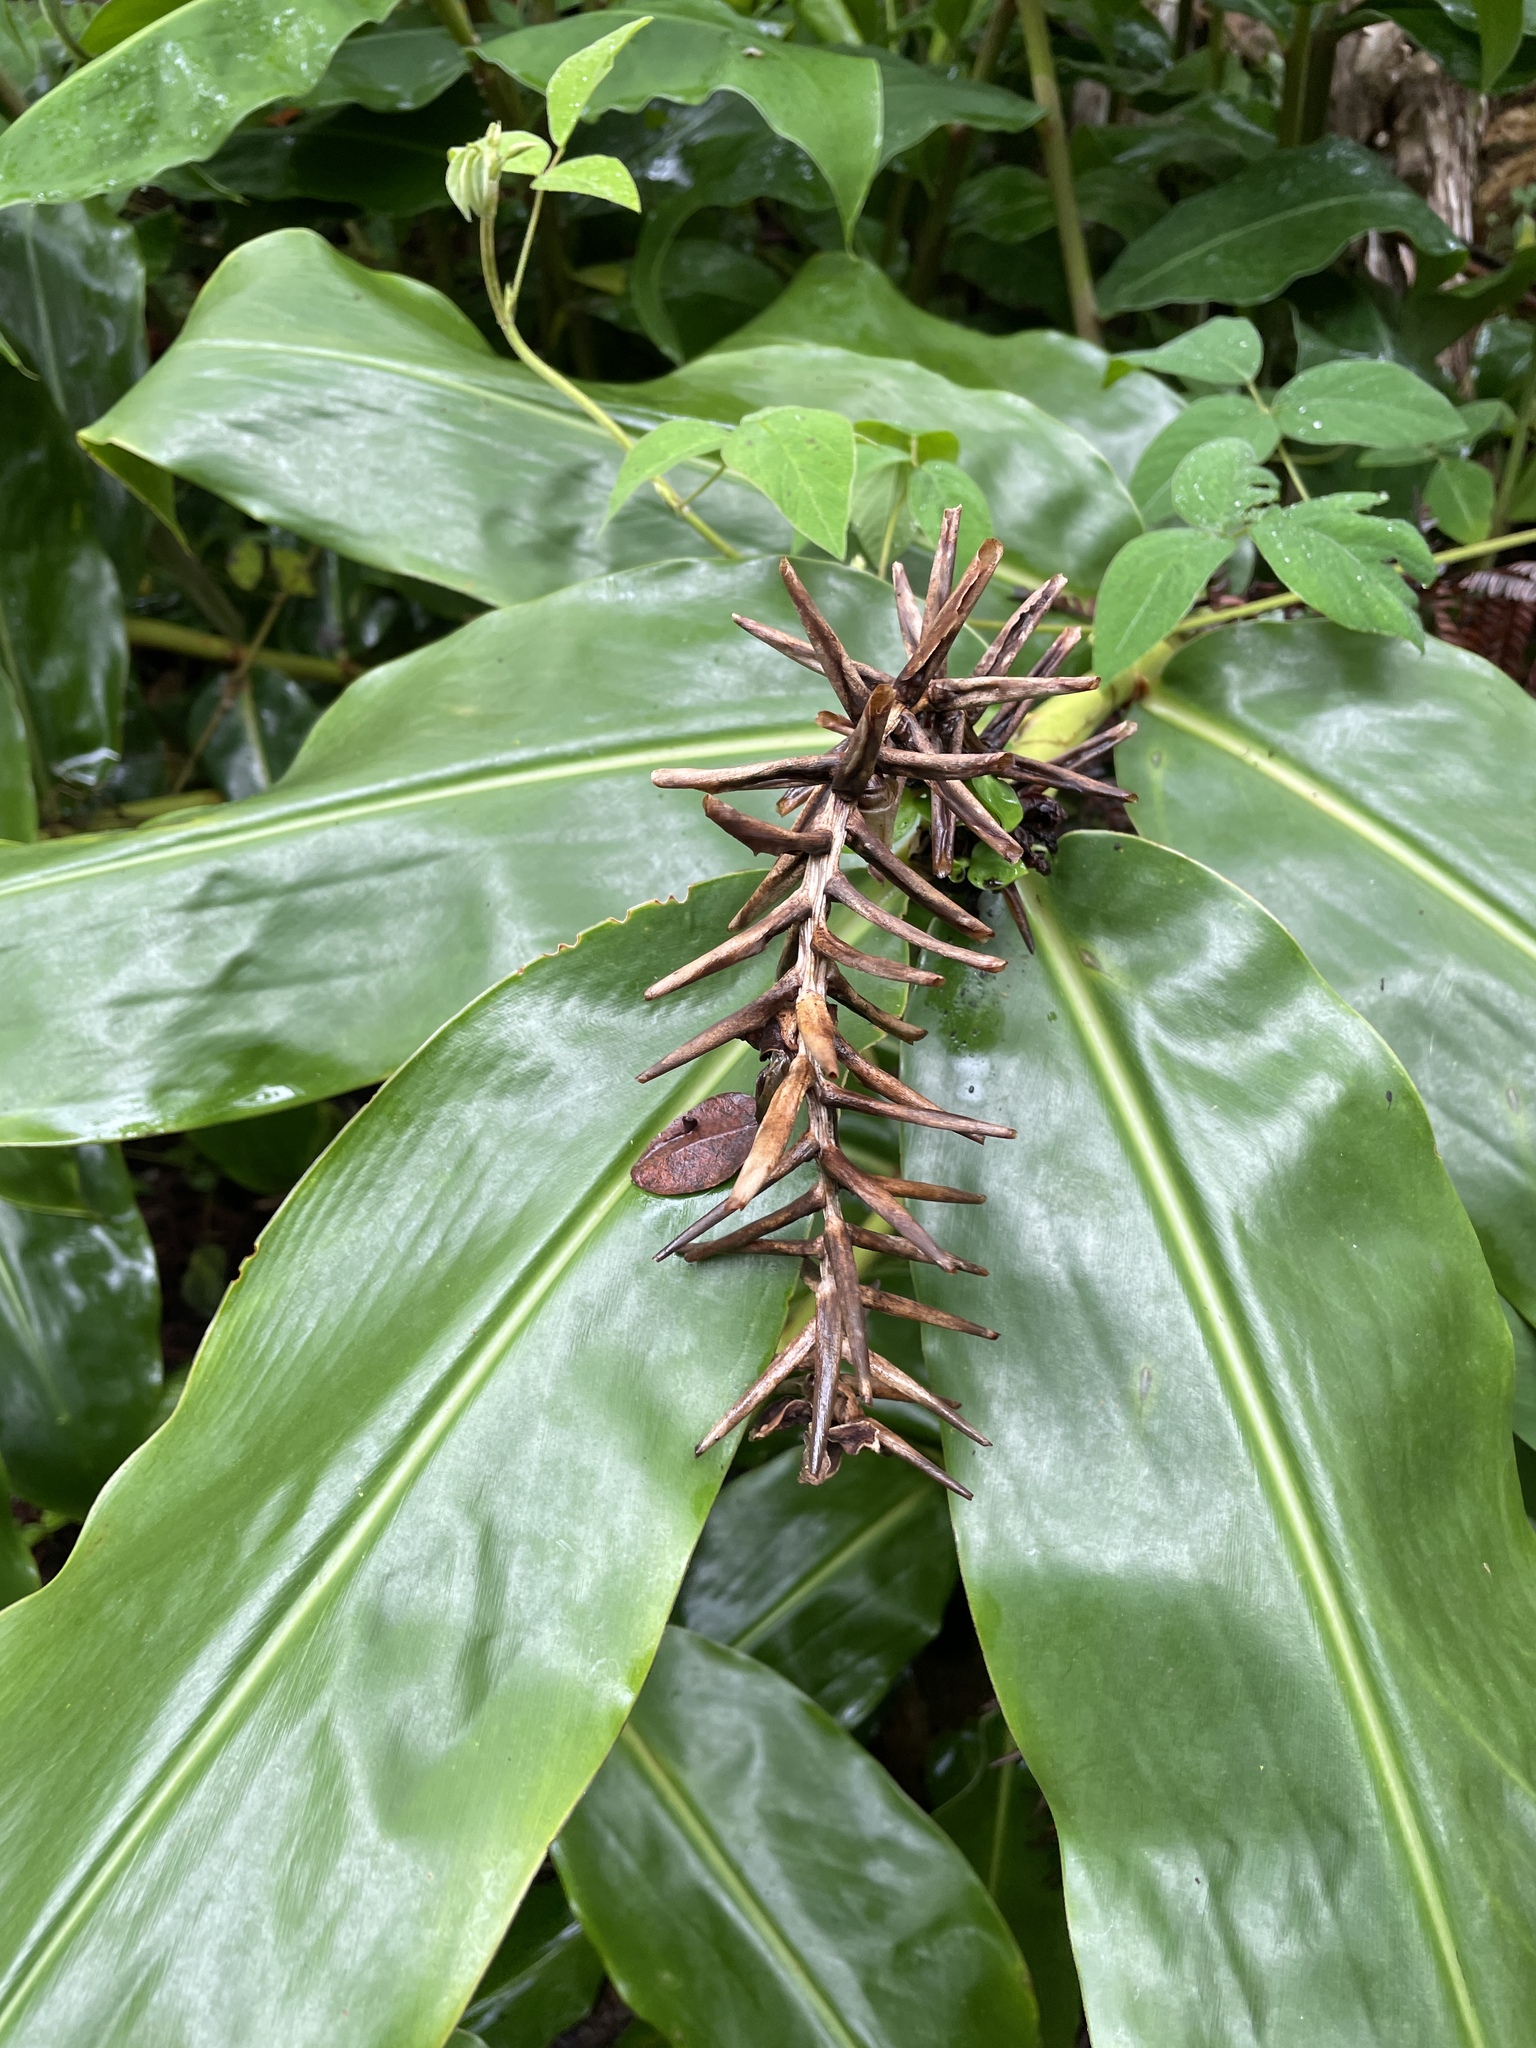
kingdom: Plantae
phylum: Tracheophyta
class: Liliopsida
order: Zingiberales
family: Zingiberaceae
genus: Hedychium
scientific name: Hedychium gardnerianum
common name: Himalayan ginger
